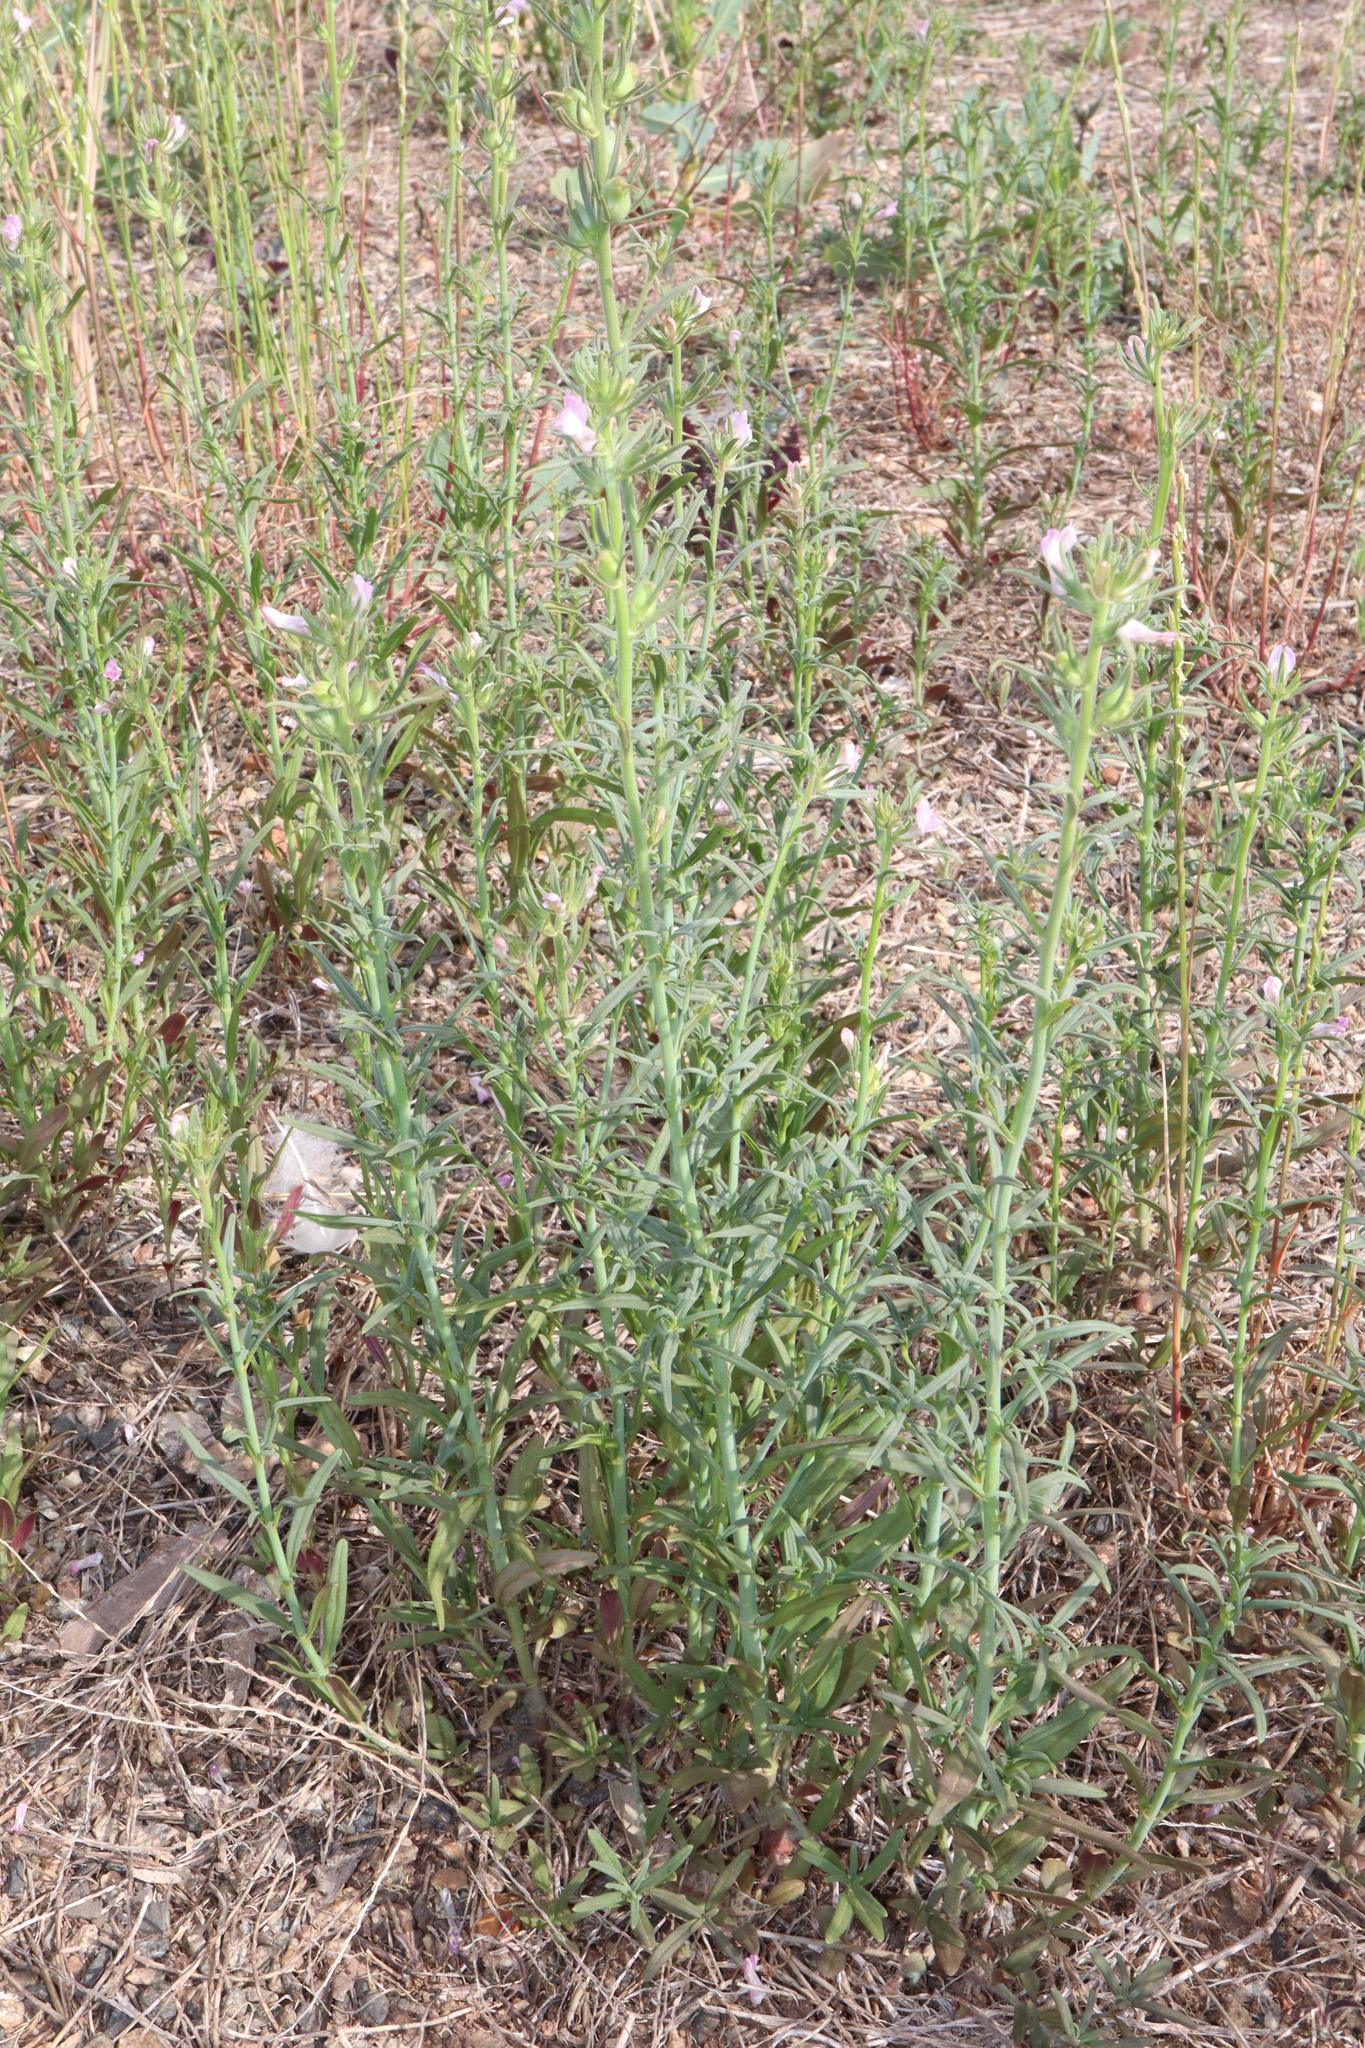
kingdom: Plantae
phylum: Tracheophyta
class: Magnoliopsida
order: Lamiales
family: Plantaginaceae
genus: Misopates
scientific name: Misopates orontium
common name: Weasel's-snout
